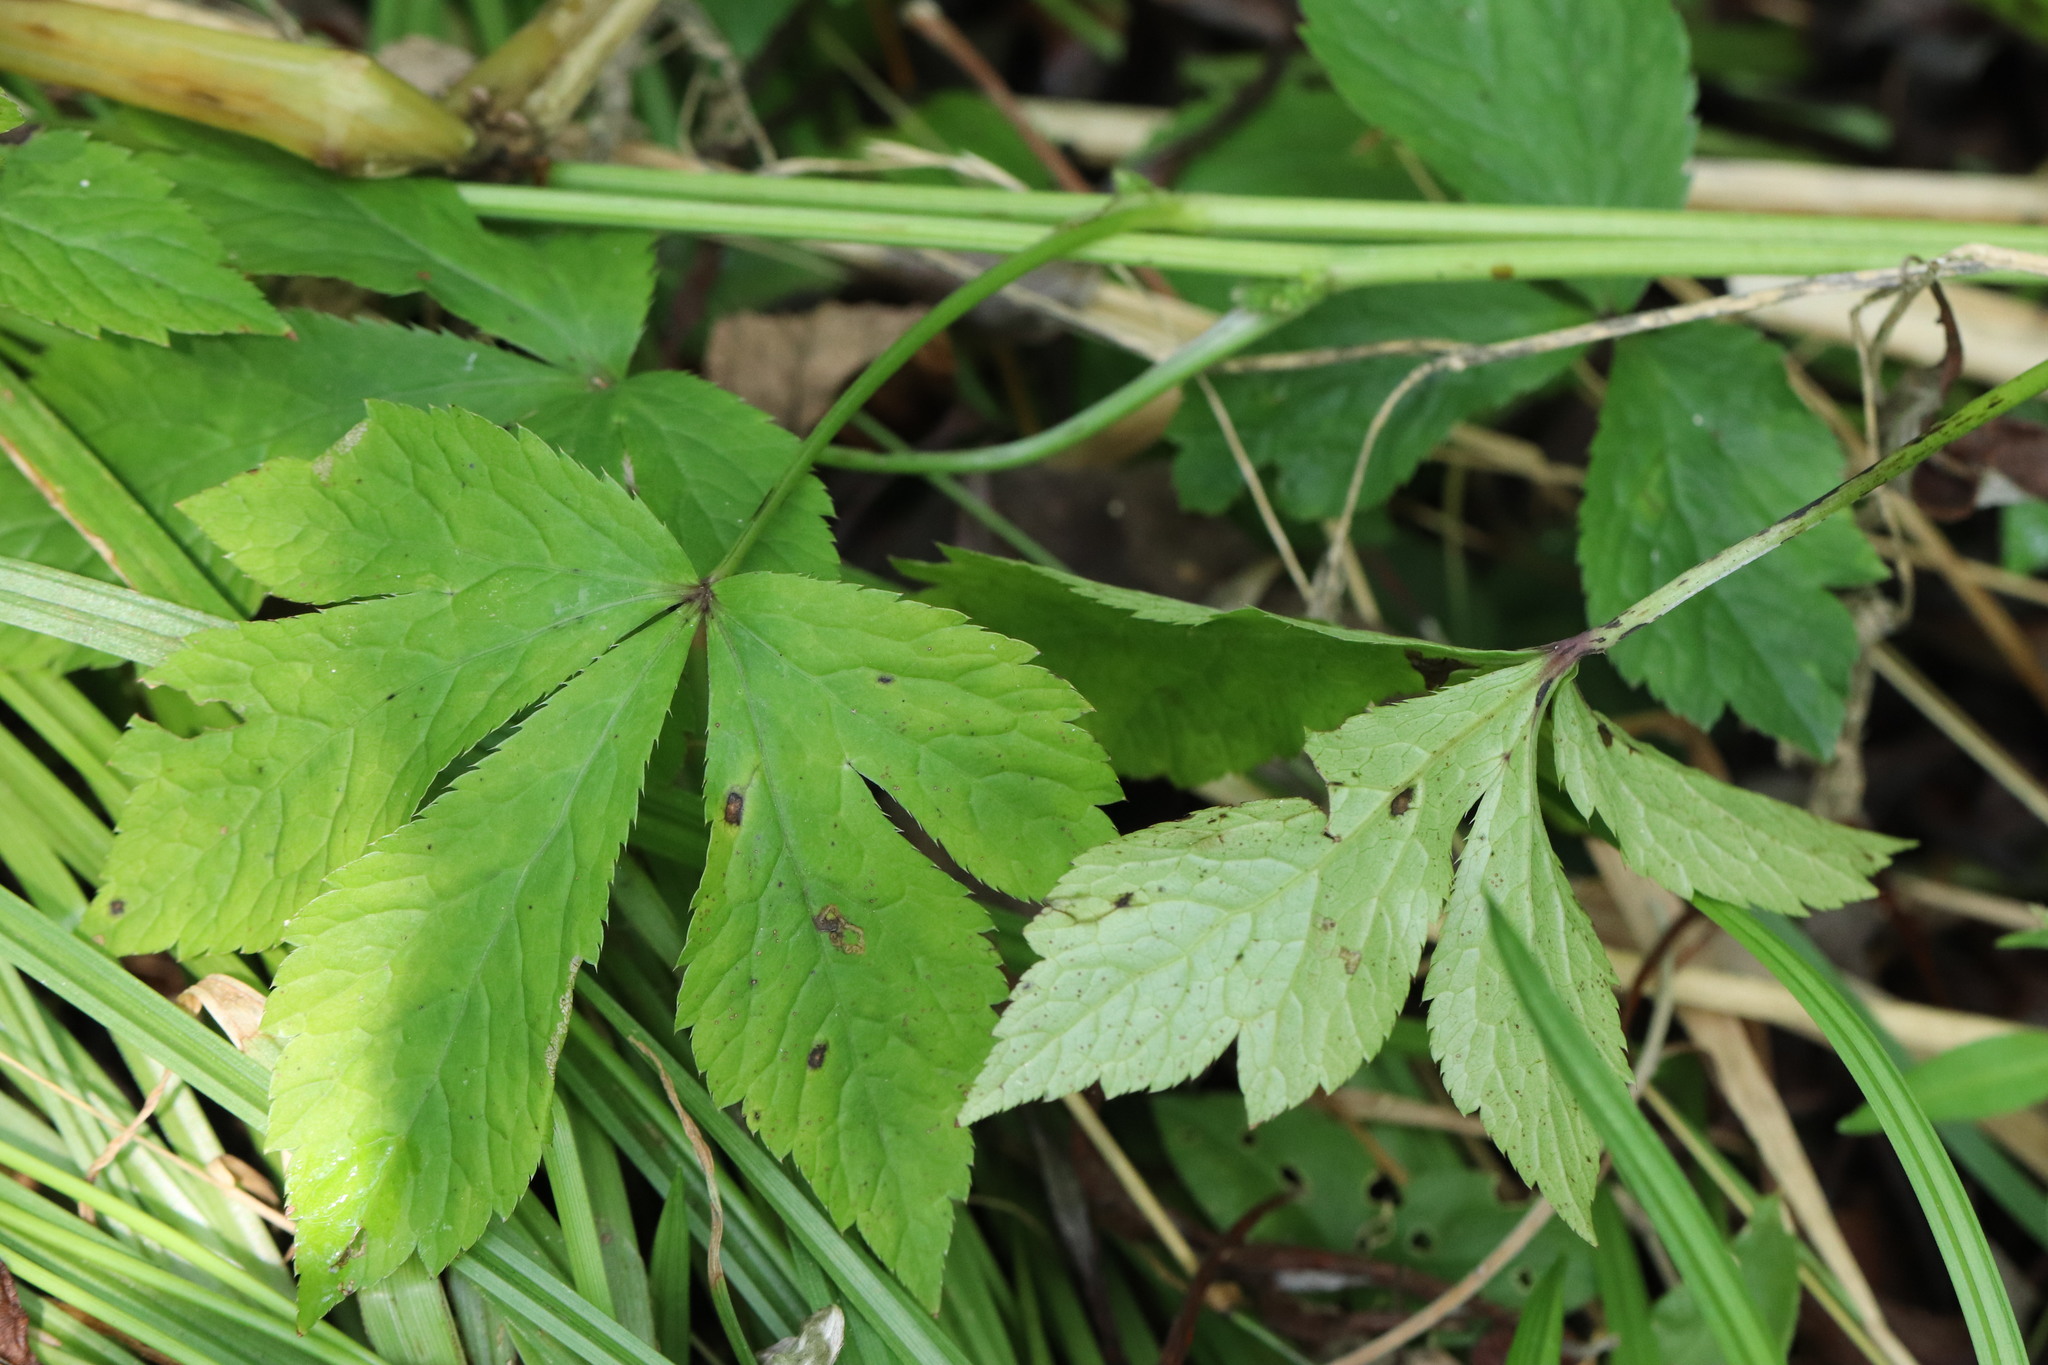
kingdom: Plantae
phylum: Tracheophyta
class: Magnoliopsida
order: Apiales
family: Apiaceae
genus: Sanicula
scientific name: Sanicula chinensis
